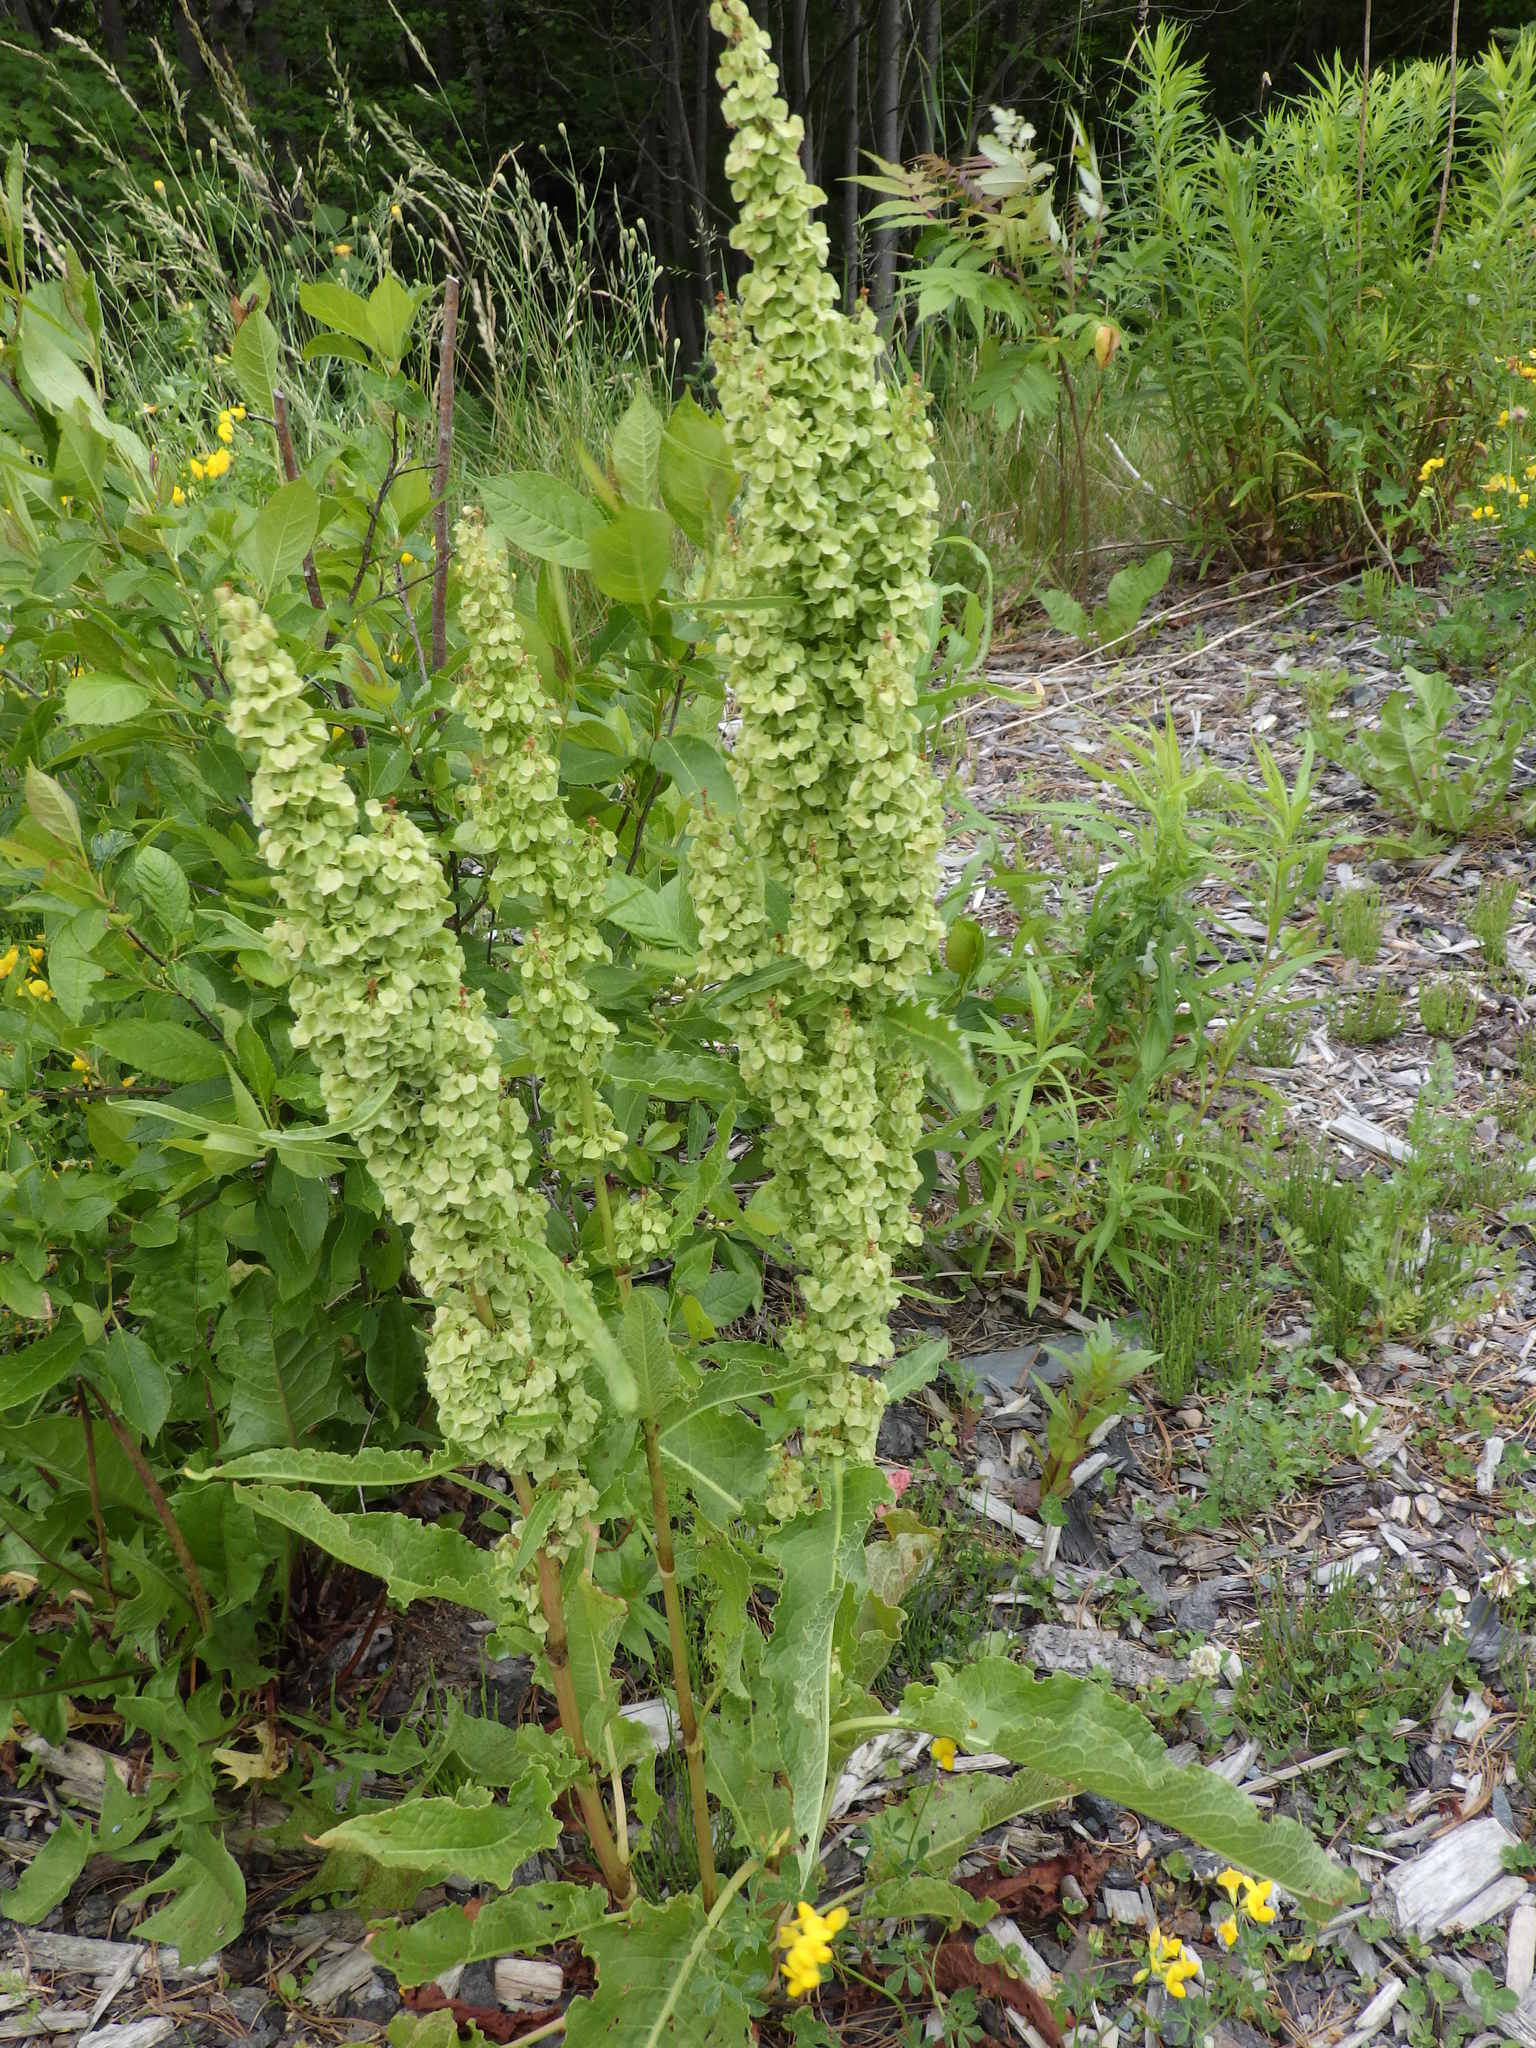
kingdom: Plantae
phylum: Tracheophyta
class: Magnoliopsida
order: Caryophyllales
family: Polygonaceae
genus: Rumex
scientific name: Rumex longifolius
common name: Dooryard dock
